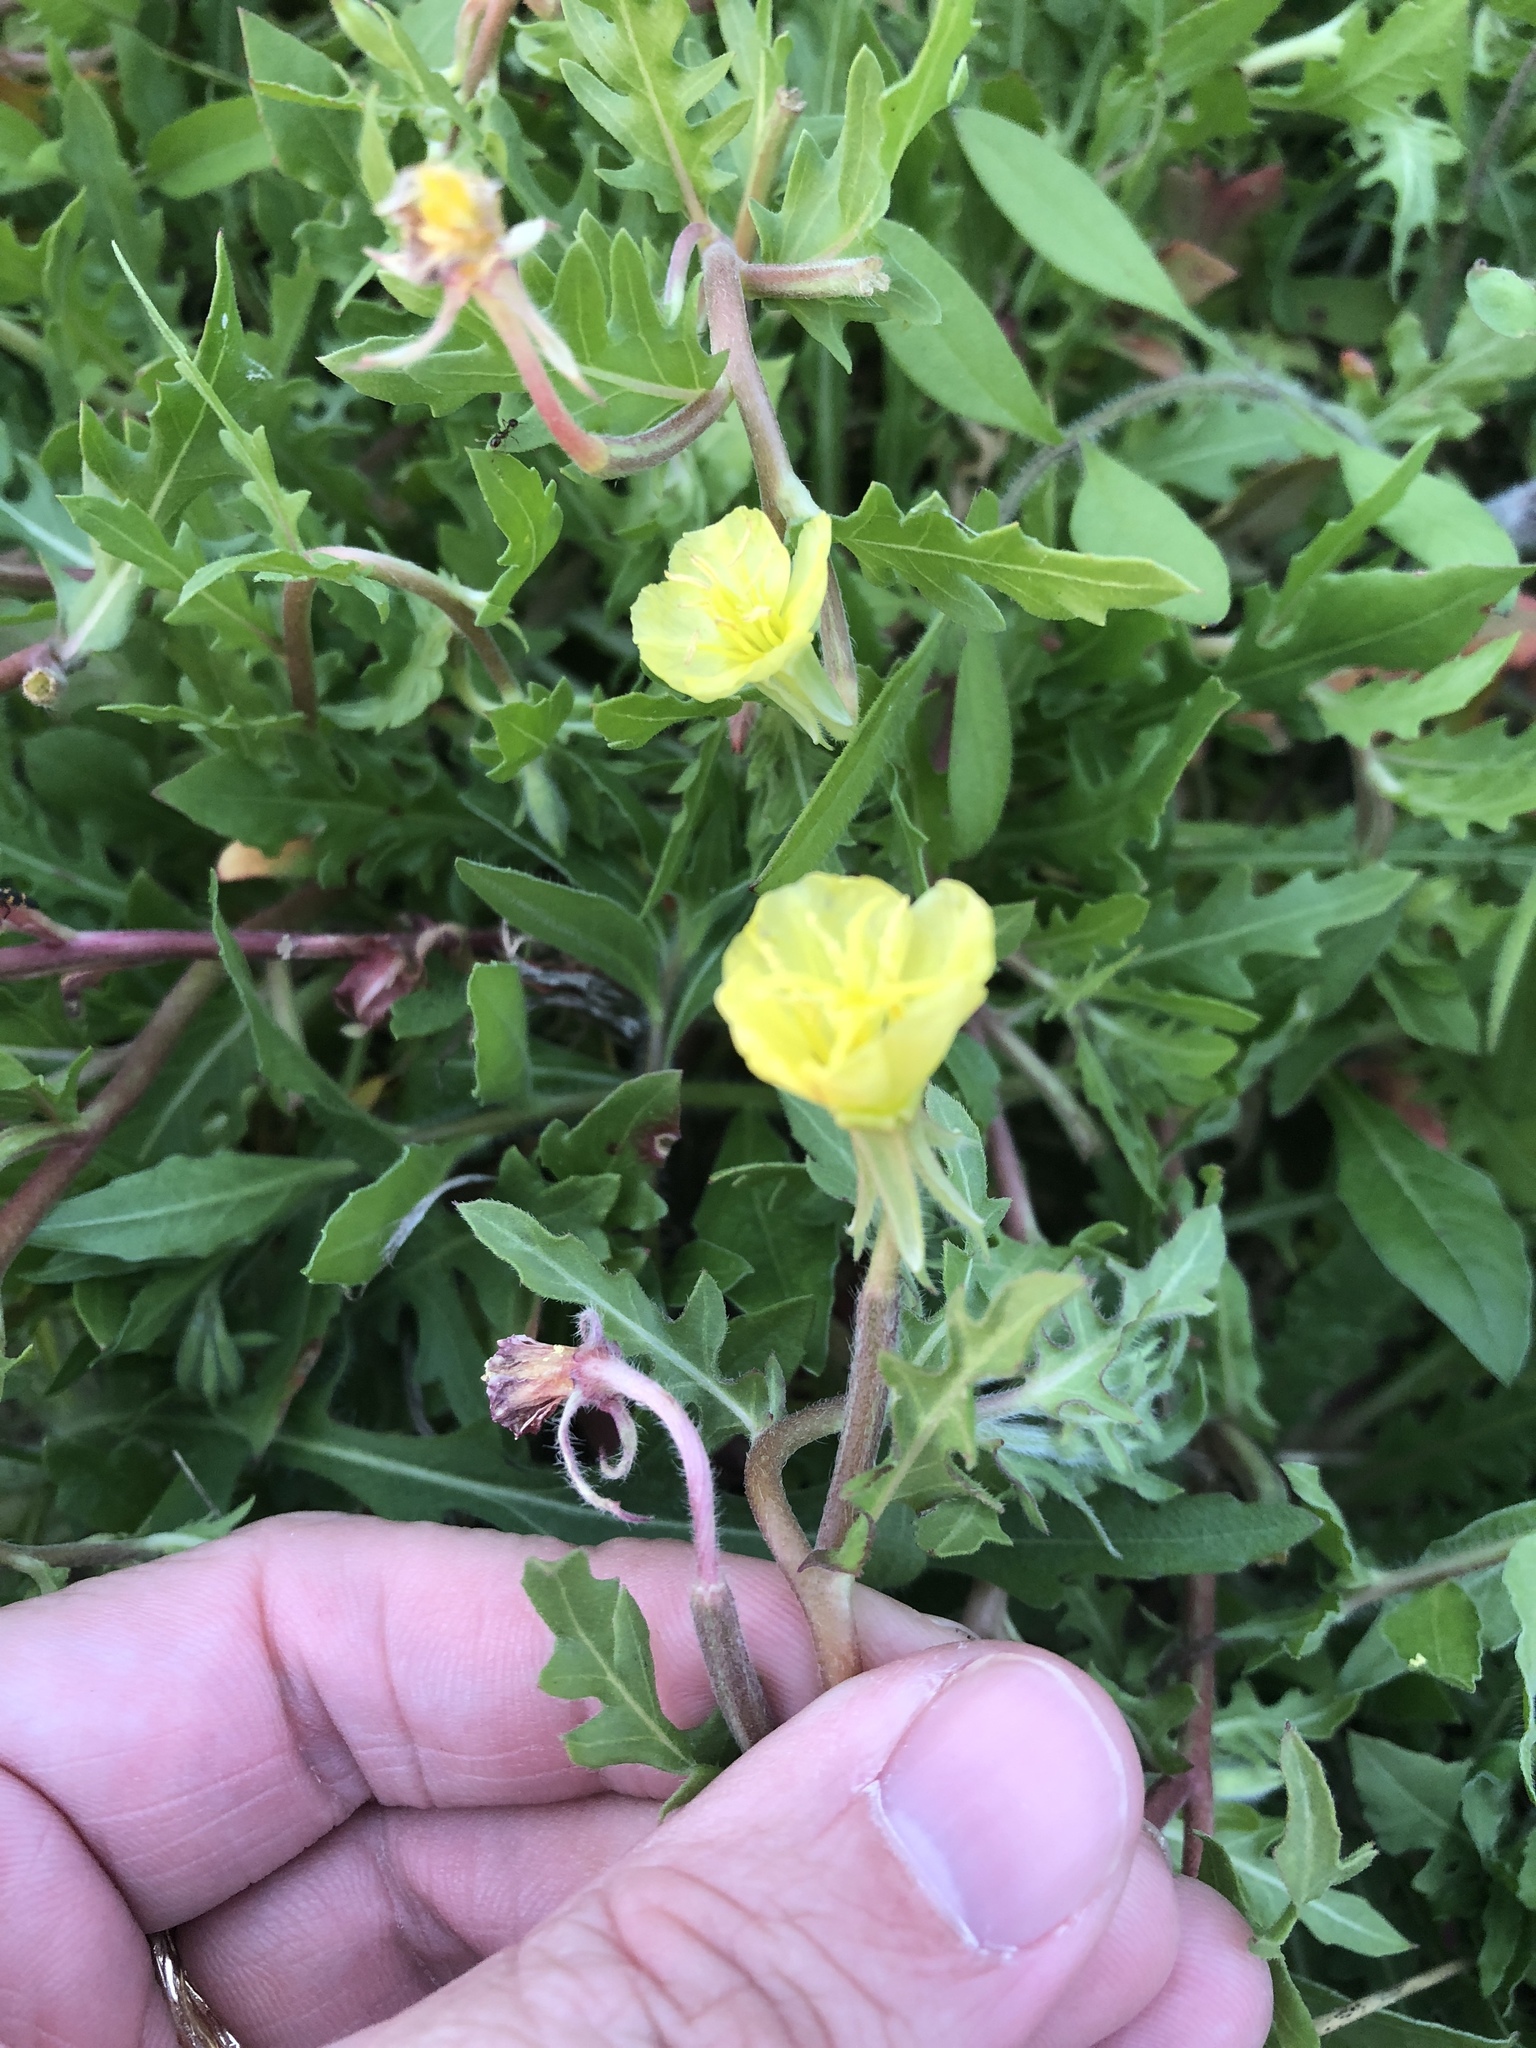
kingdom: Plantae
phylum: Tracheophyta
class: Magnoliopsida
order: Myrtales
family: Onagraceae
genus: Oenothera
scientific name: Oenothera laciniata
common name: Cut-leaved evening-primrose
